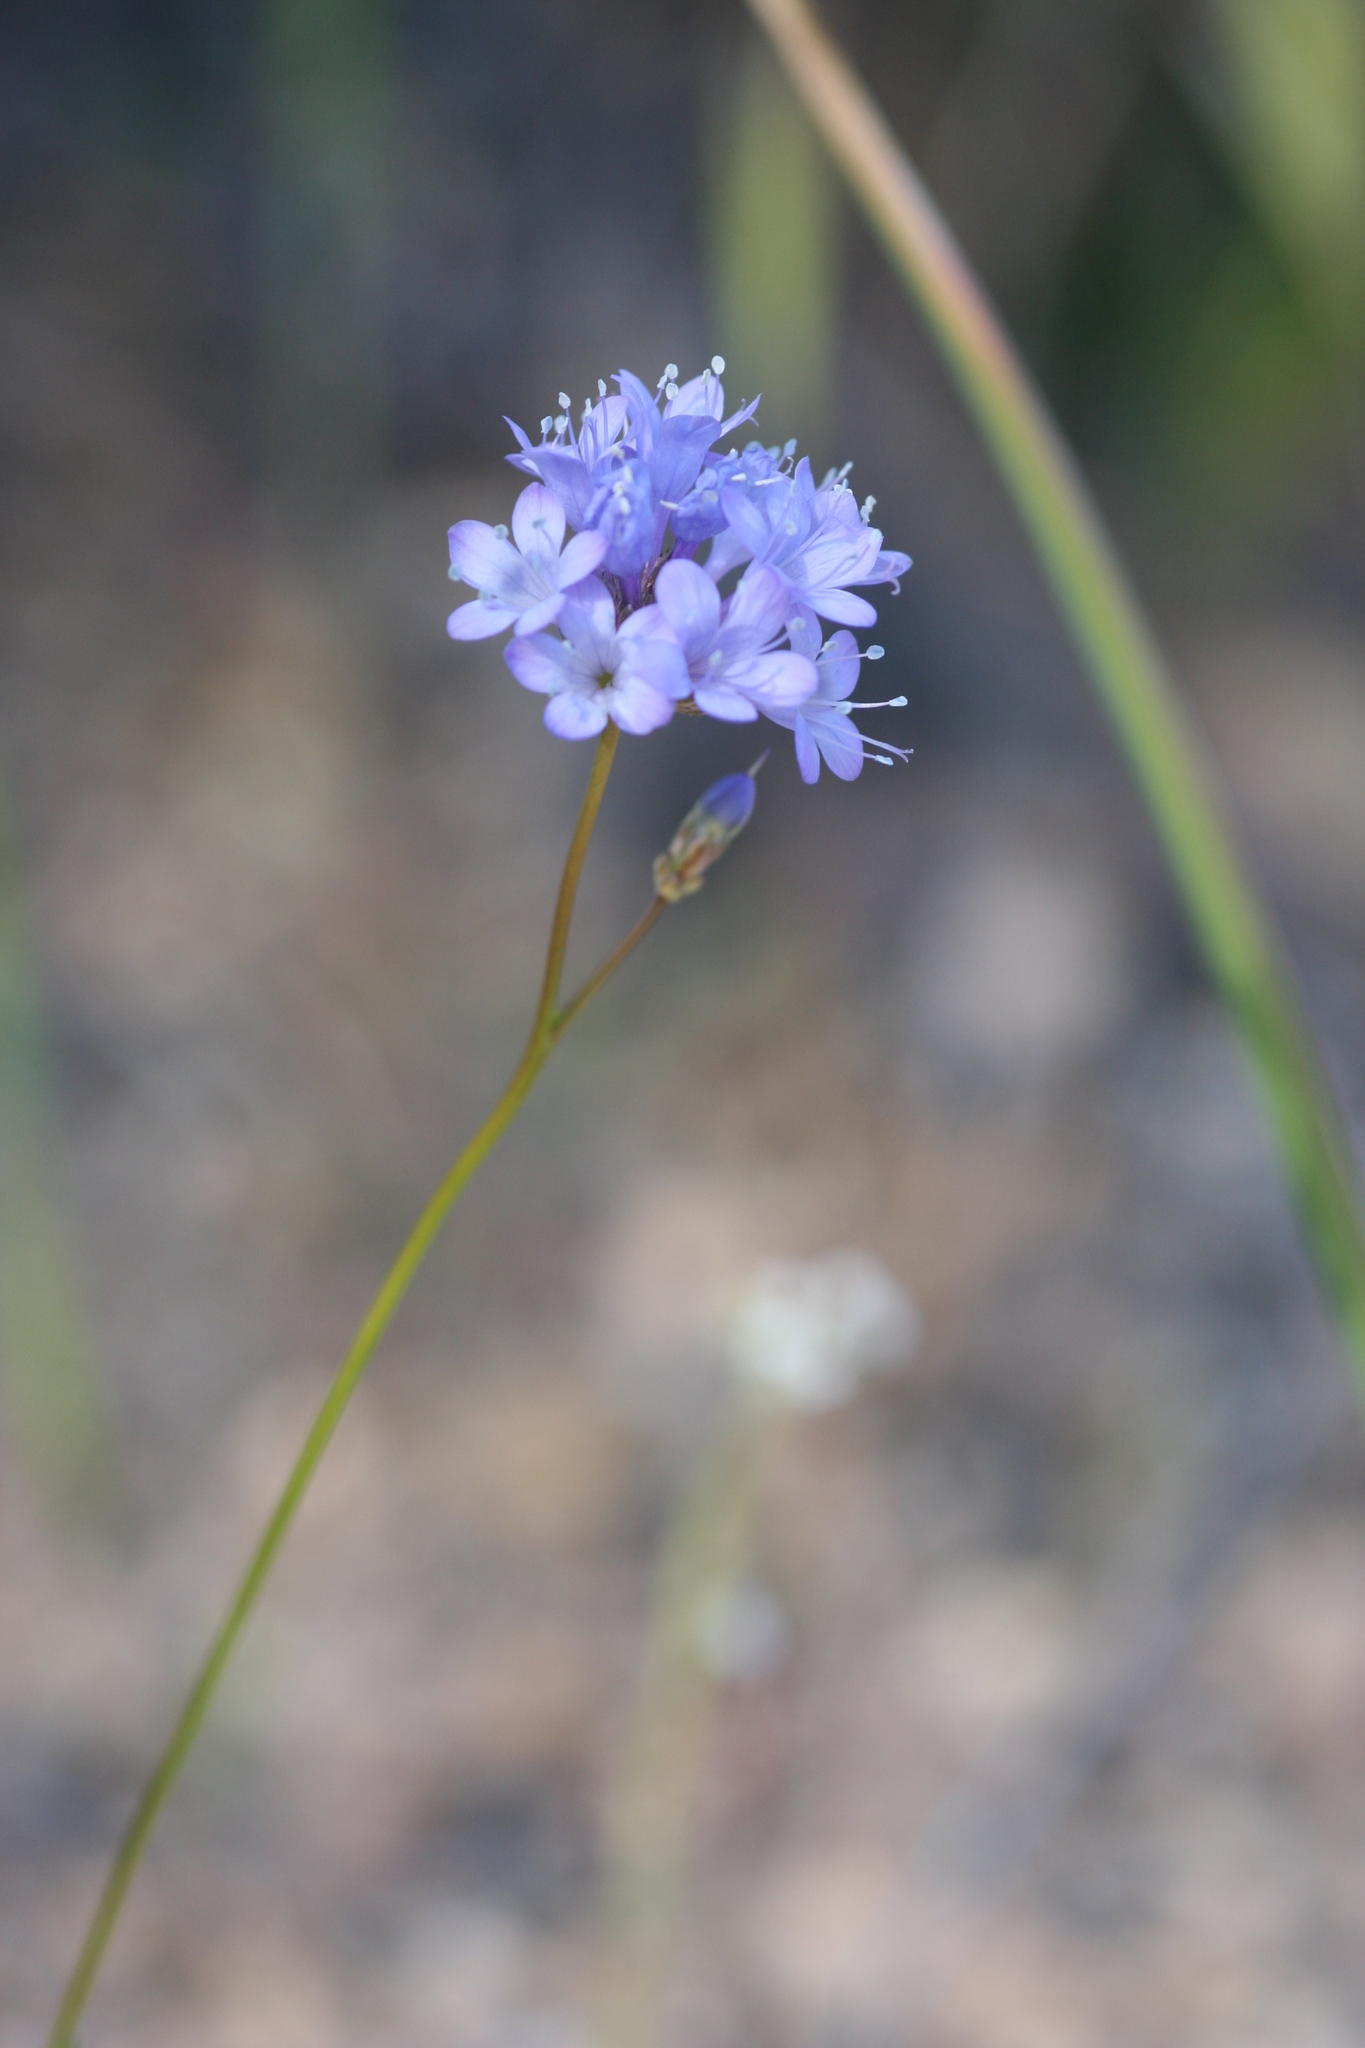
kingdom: Plantae
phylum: Tracheophyta
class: Magnoliopsida
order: Ericales
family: Polemoniaceae
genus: Gilia
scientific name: Gilia achilleifolia
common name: California gily-flower
